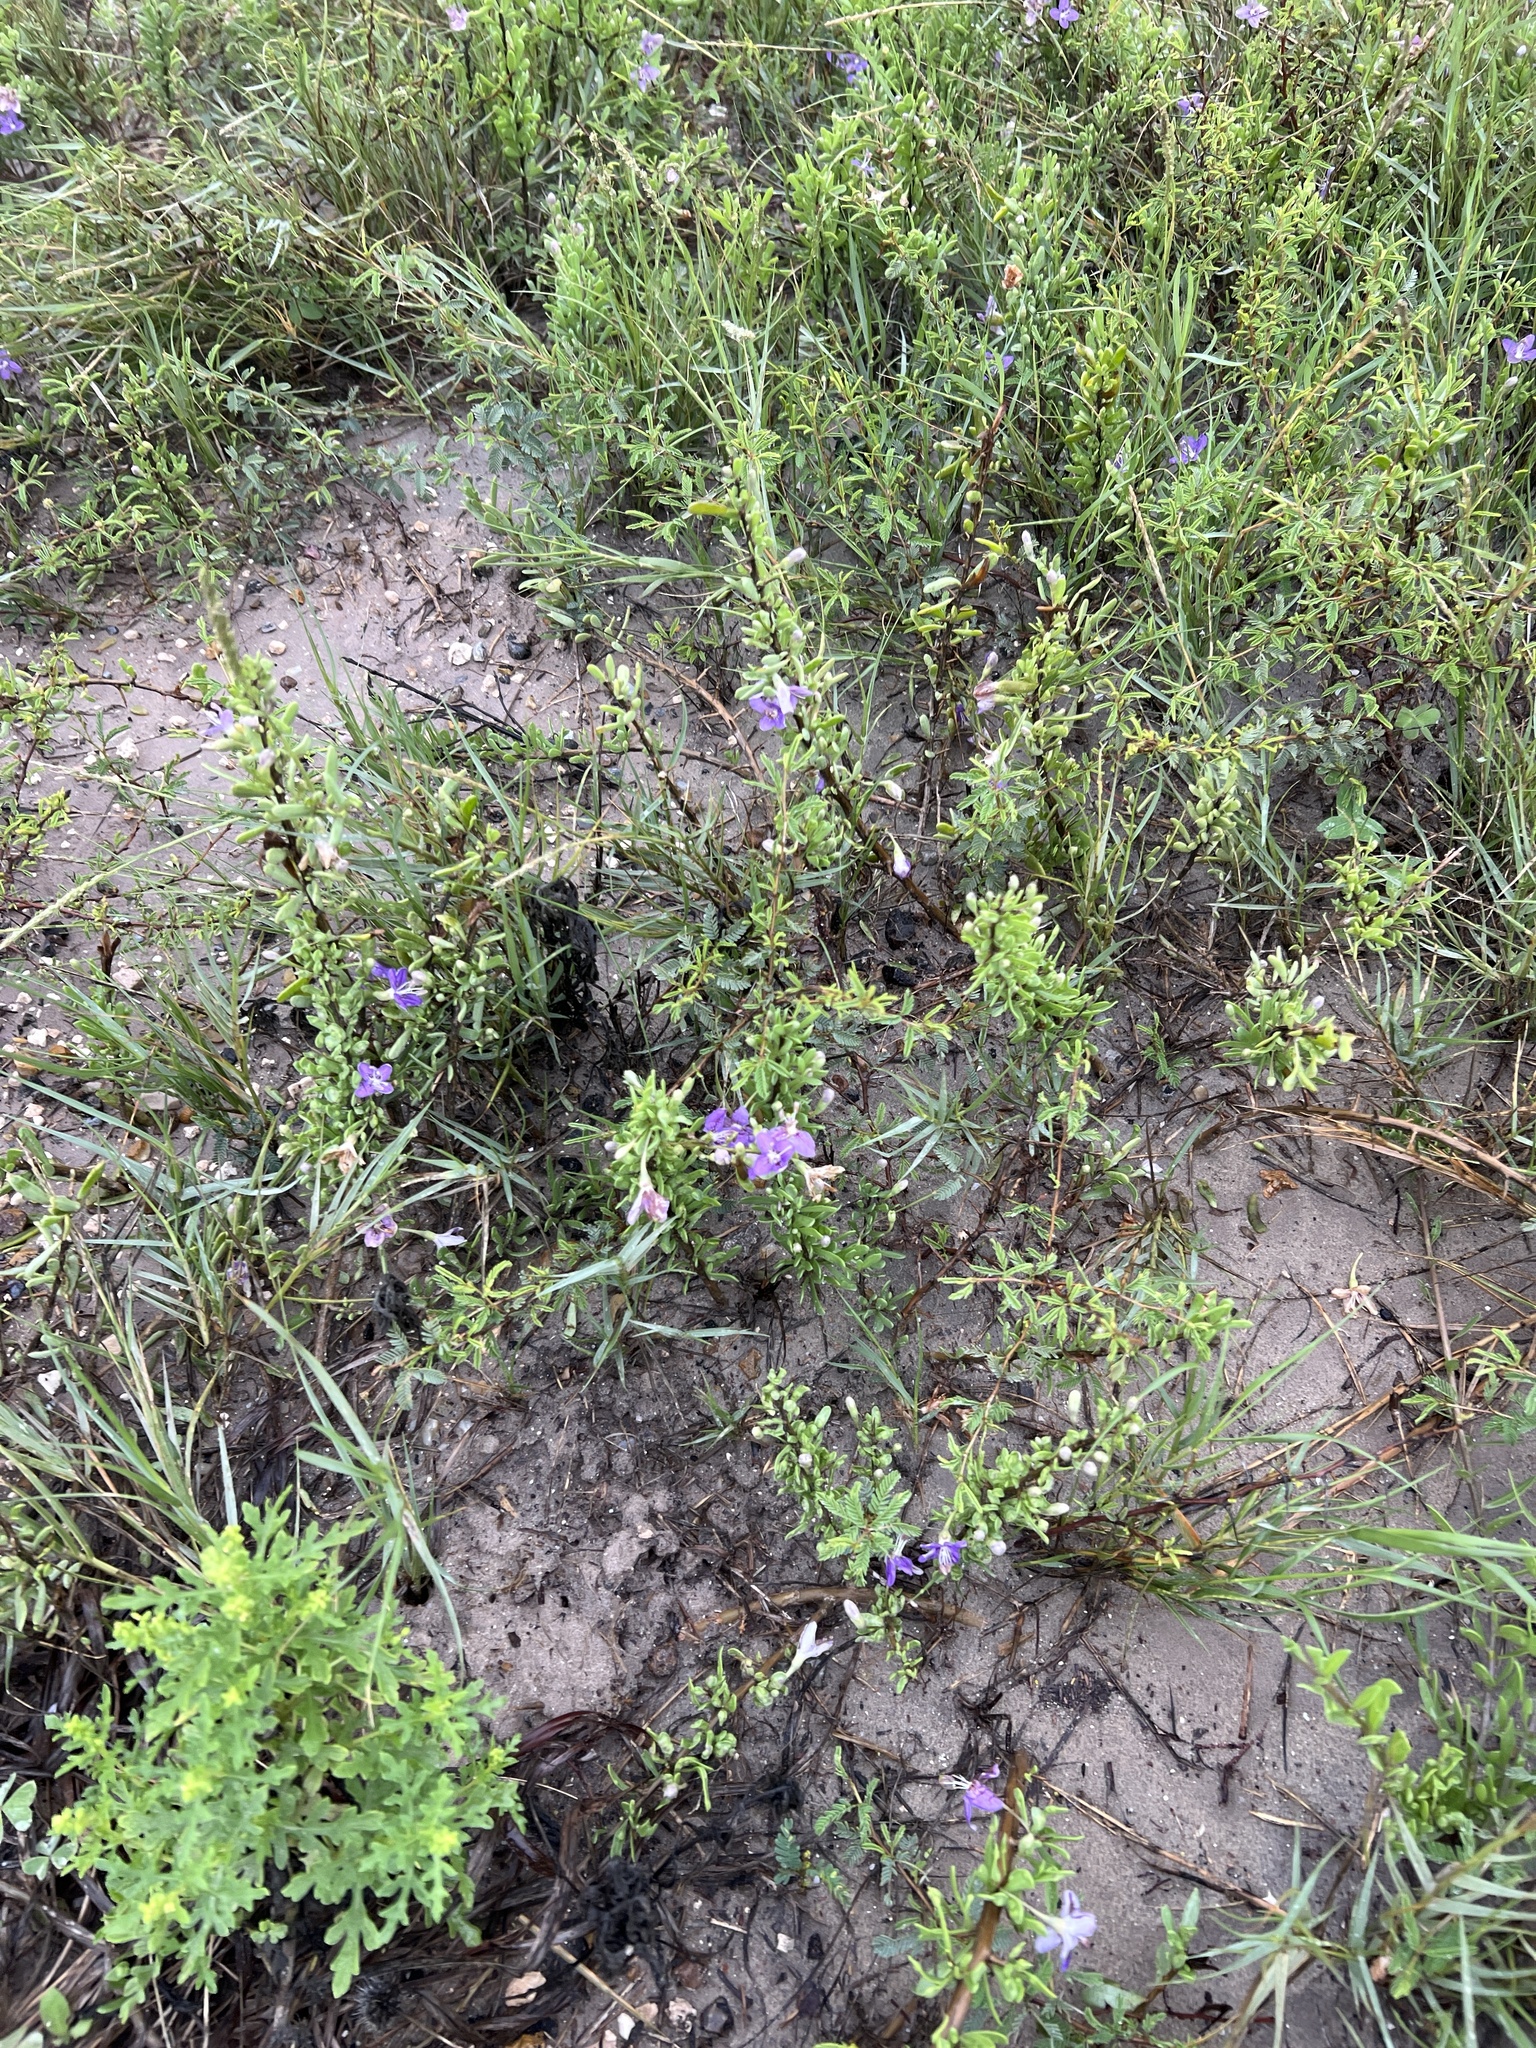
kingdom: Plantae
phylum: Tracheophyta
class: Magnoliopsida
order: Solanales
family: Solanaceae
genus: Lycium
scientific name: Lycium carolinianum
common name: Christmasberry
